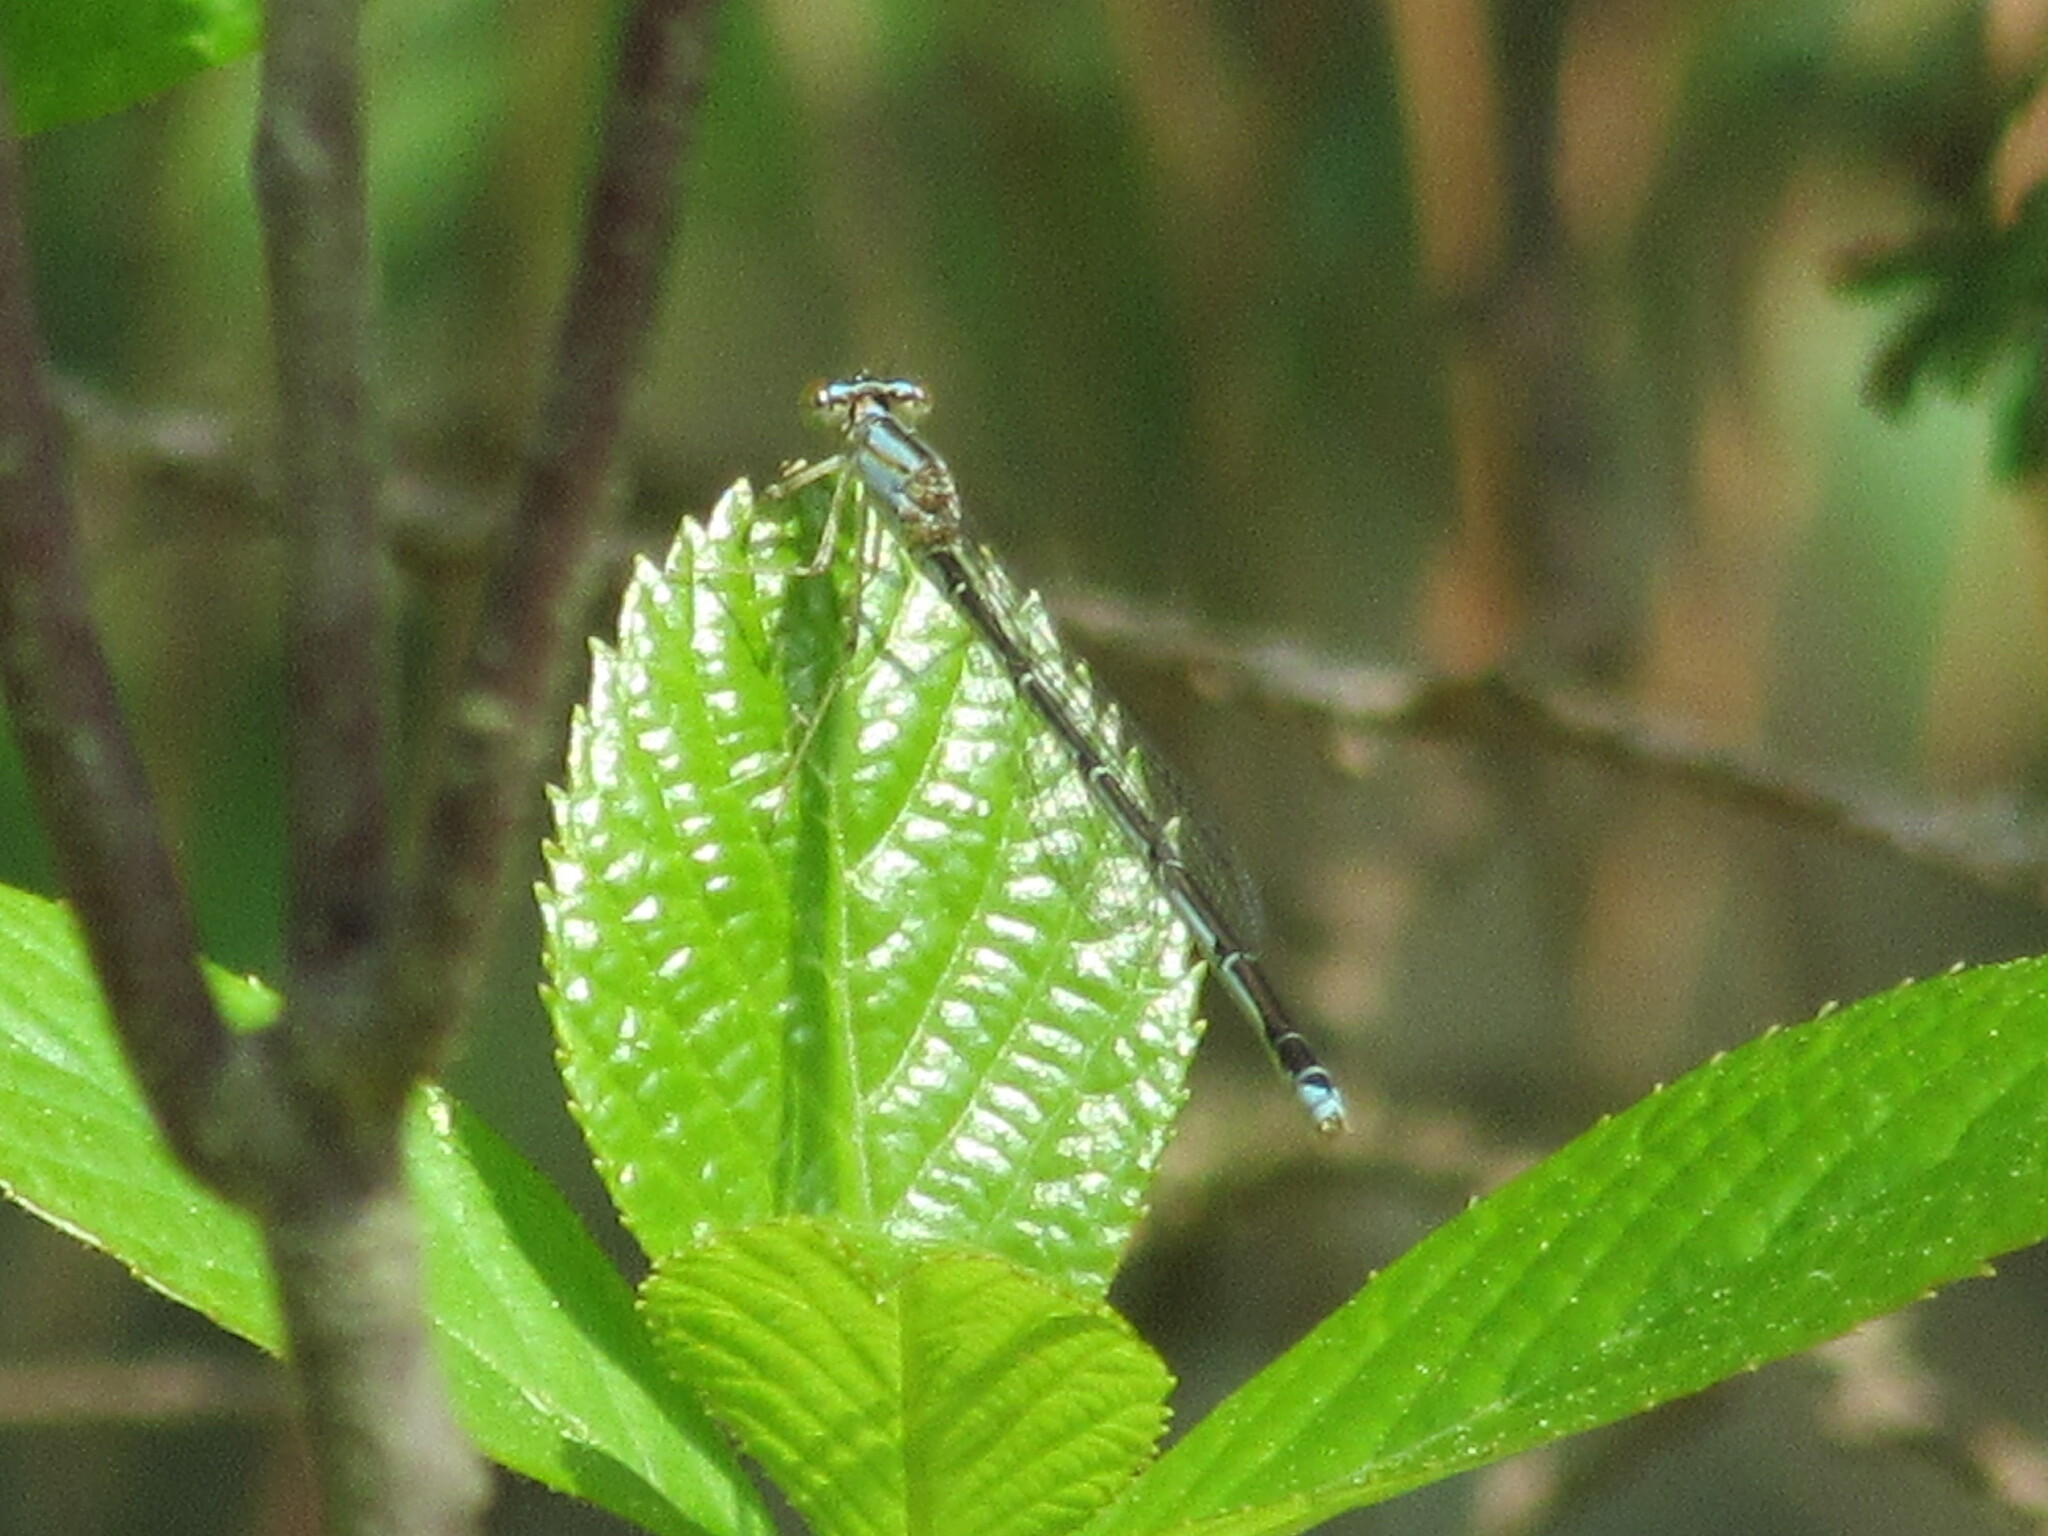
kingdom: Animalia
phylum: Arthropoda
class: Insecta
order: Odonata
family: Coenagrionidae
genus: Enallagma
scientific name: Enallagma vesperum
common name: Vesper bluet
